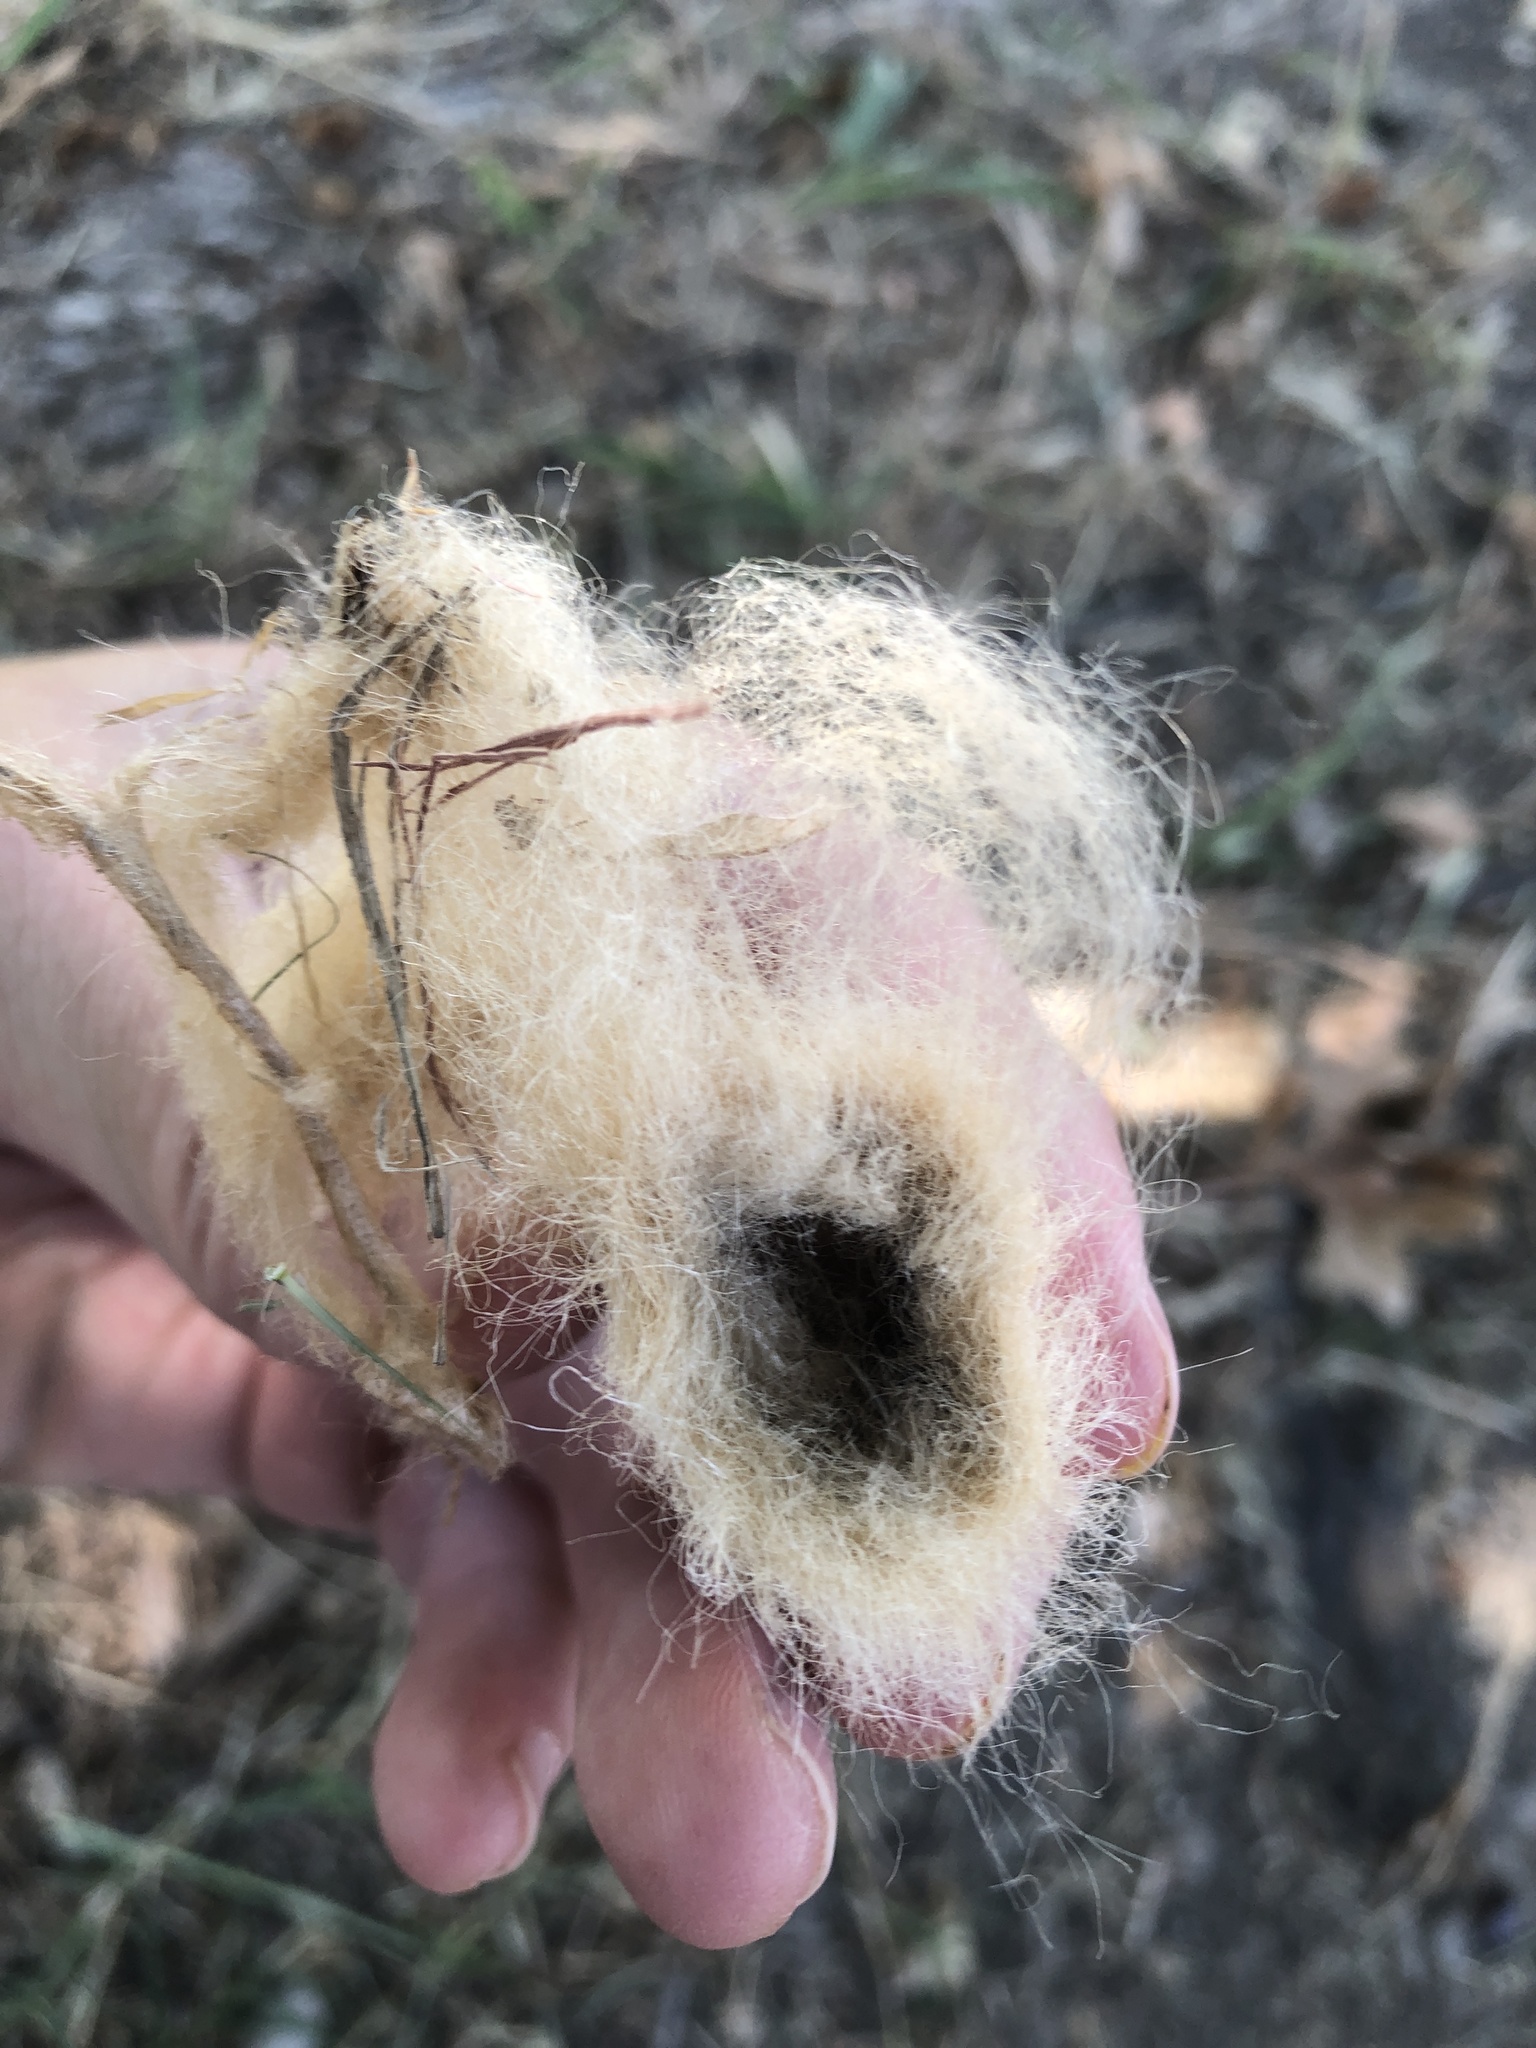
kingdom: Animalia
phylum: Arthropoda
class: Insecta
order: Lepidoptera
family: Saturniidae
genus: Antheraea
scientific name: Antheraea polyphemus
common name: Polyphemus moth
